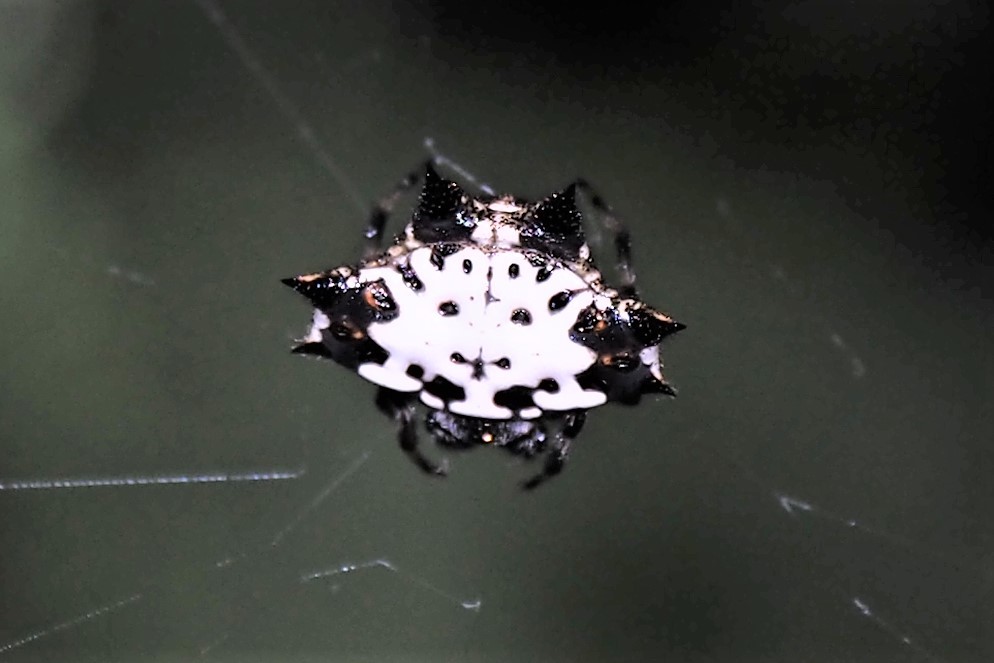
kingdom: Animalia
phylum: Arthropoda
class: Arachnida
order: Araneae
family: Araneidae
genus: Gasteracantha
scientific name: Gasteracantha kuhli
